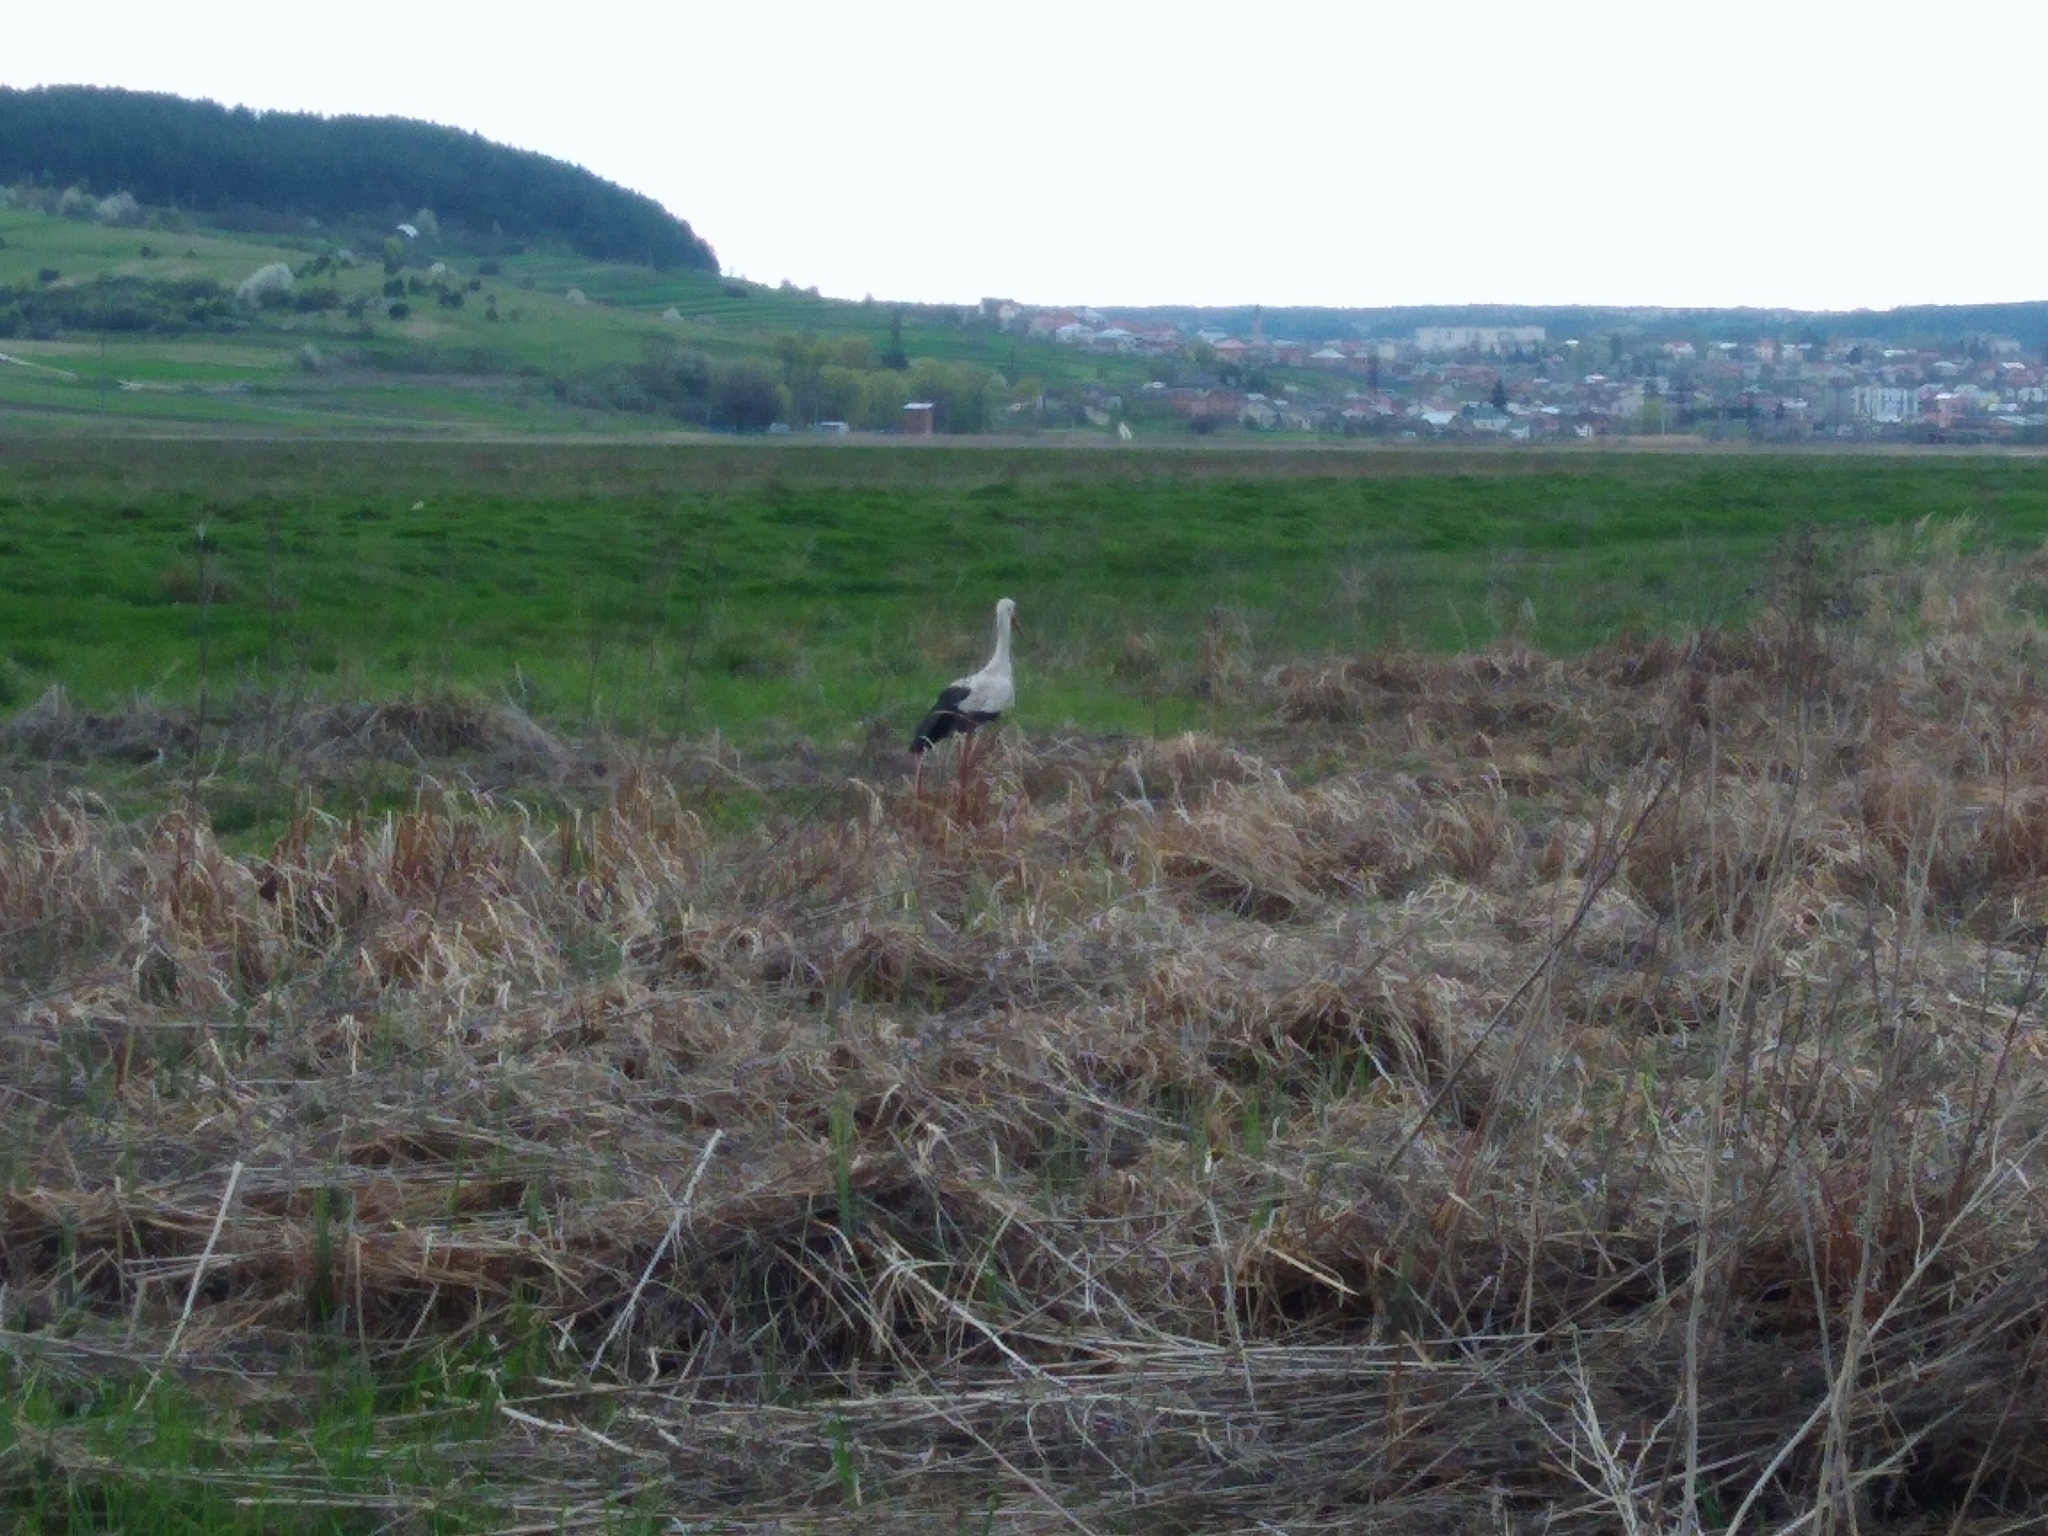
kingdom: Animalia
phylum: Chordata
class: Aves
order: Ciconiiformes
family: Ciconiidae
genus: Ciconia
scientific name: Ciconia ciconia
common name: White stork
